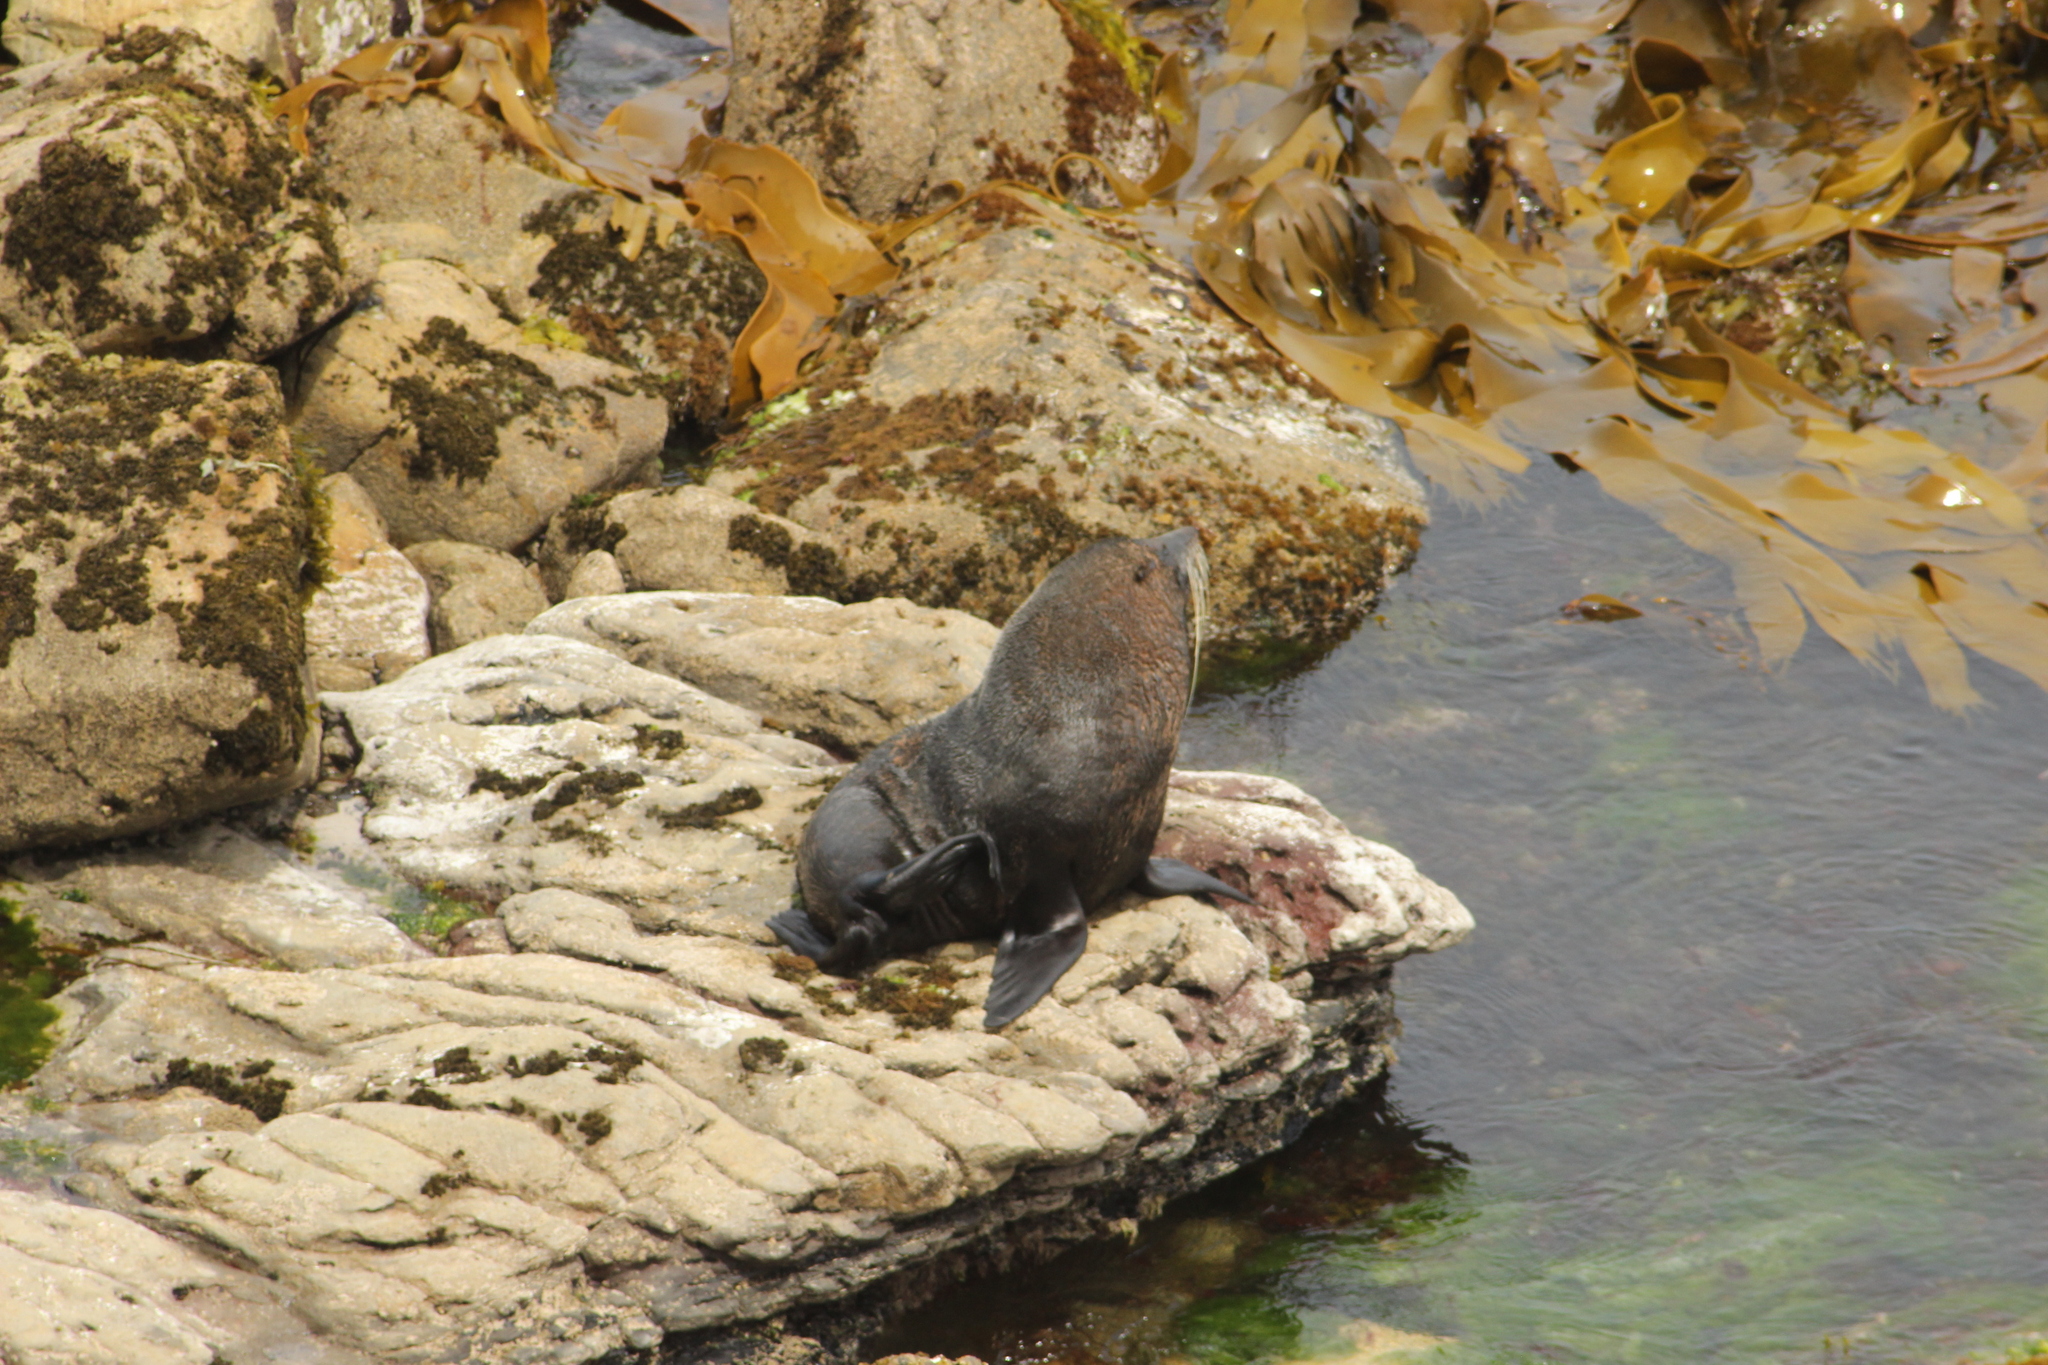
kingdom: Animalia
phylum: Chordata
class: Mammalia
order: Carnivora
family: Otariidae
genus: Arctocephalus
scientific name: Arctocephalus forsteri
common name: New zealand fur seal
